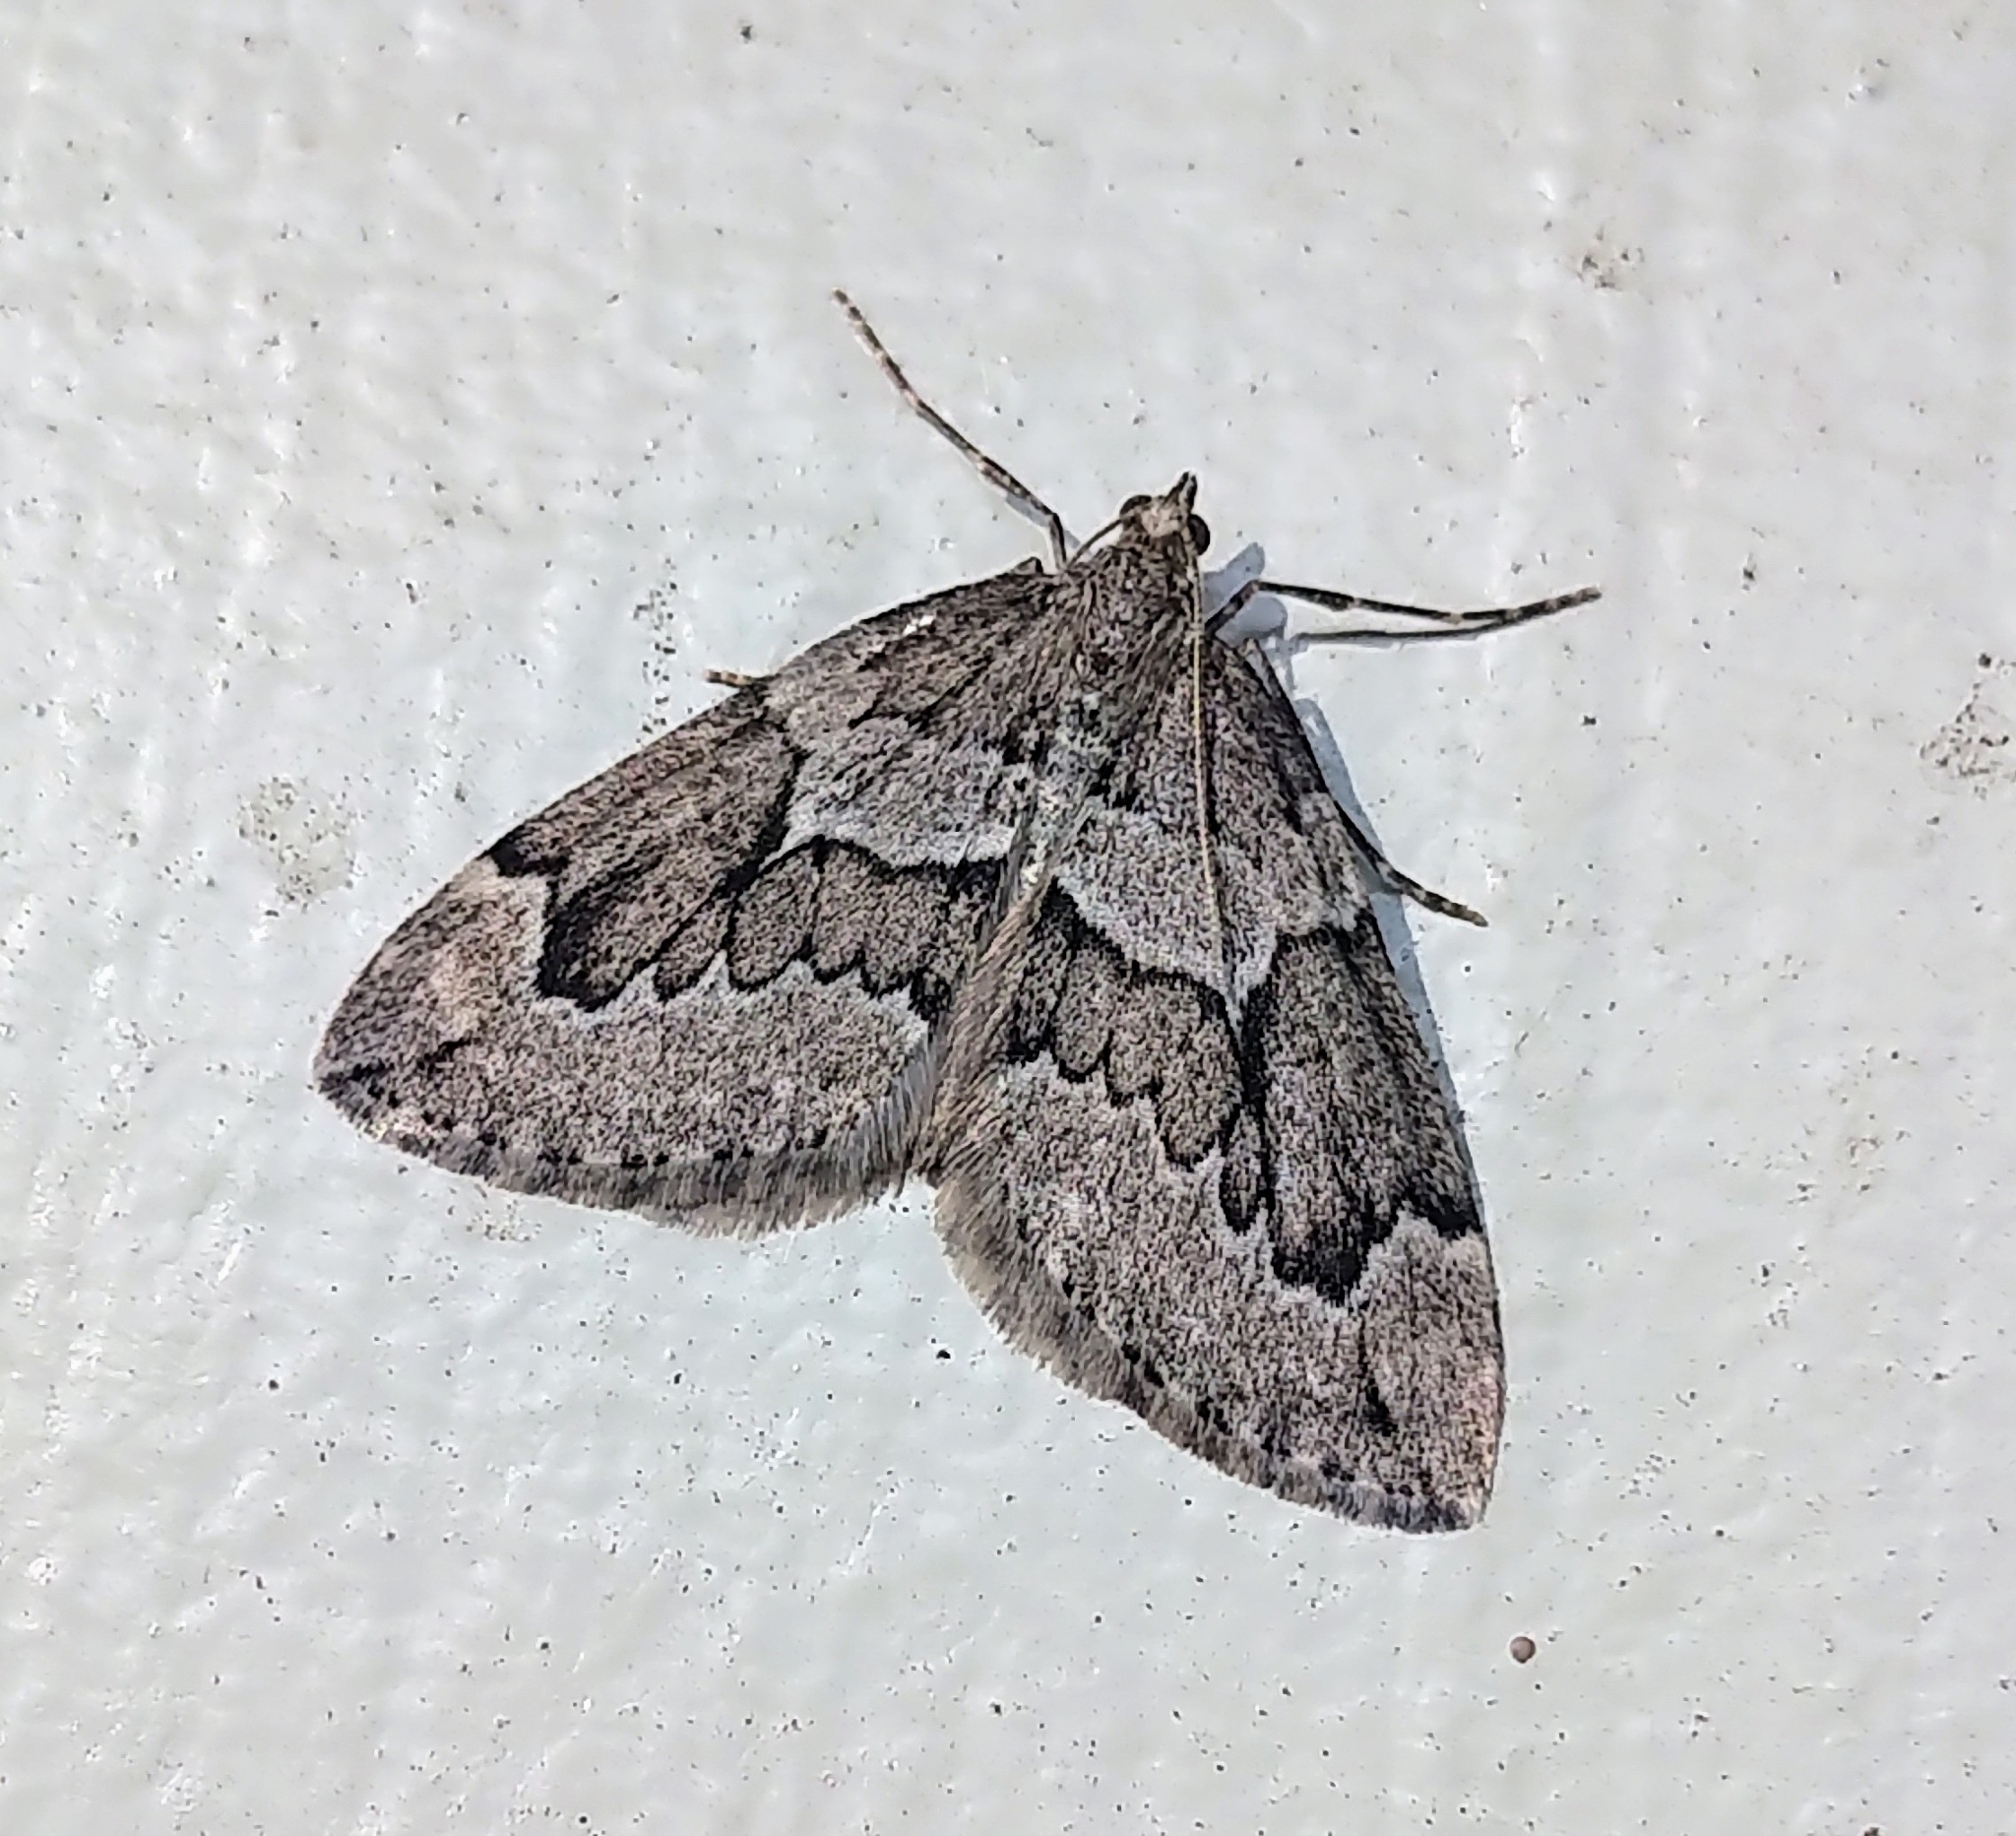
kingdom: Animalia
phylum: Arthropoda
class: Insecta
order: Lepidoptera
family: Geometridae
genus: Thera
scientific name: Thera juniperata
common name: Juniper carpet
